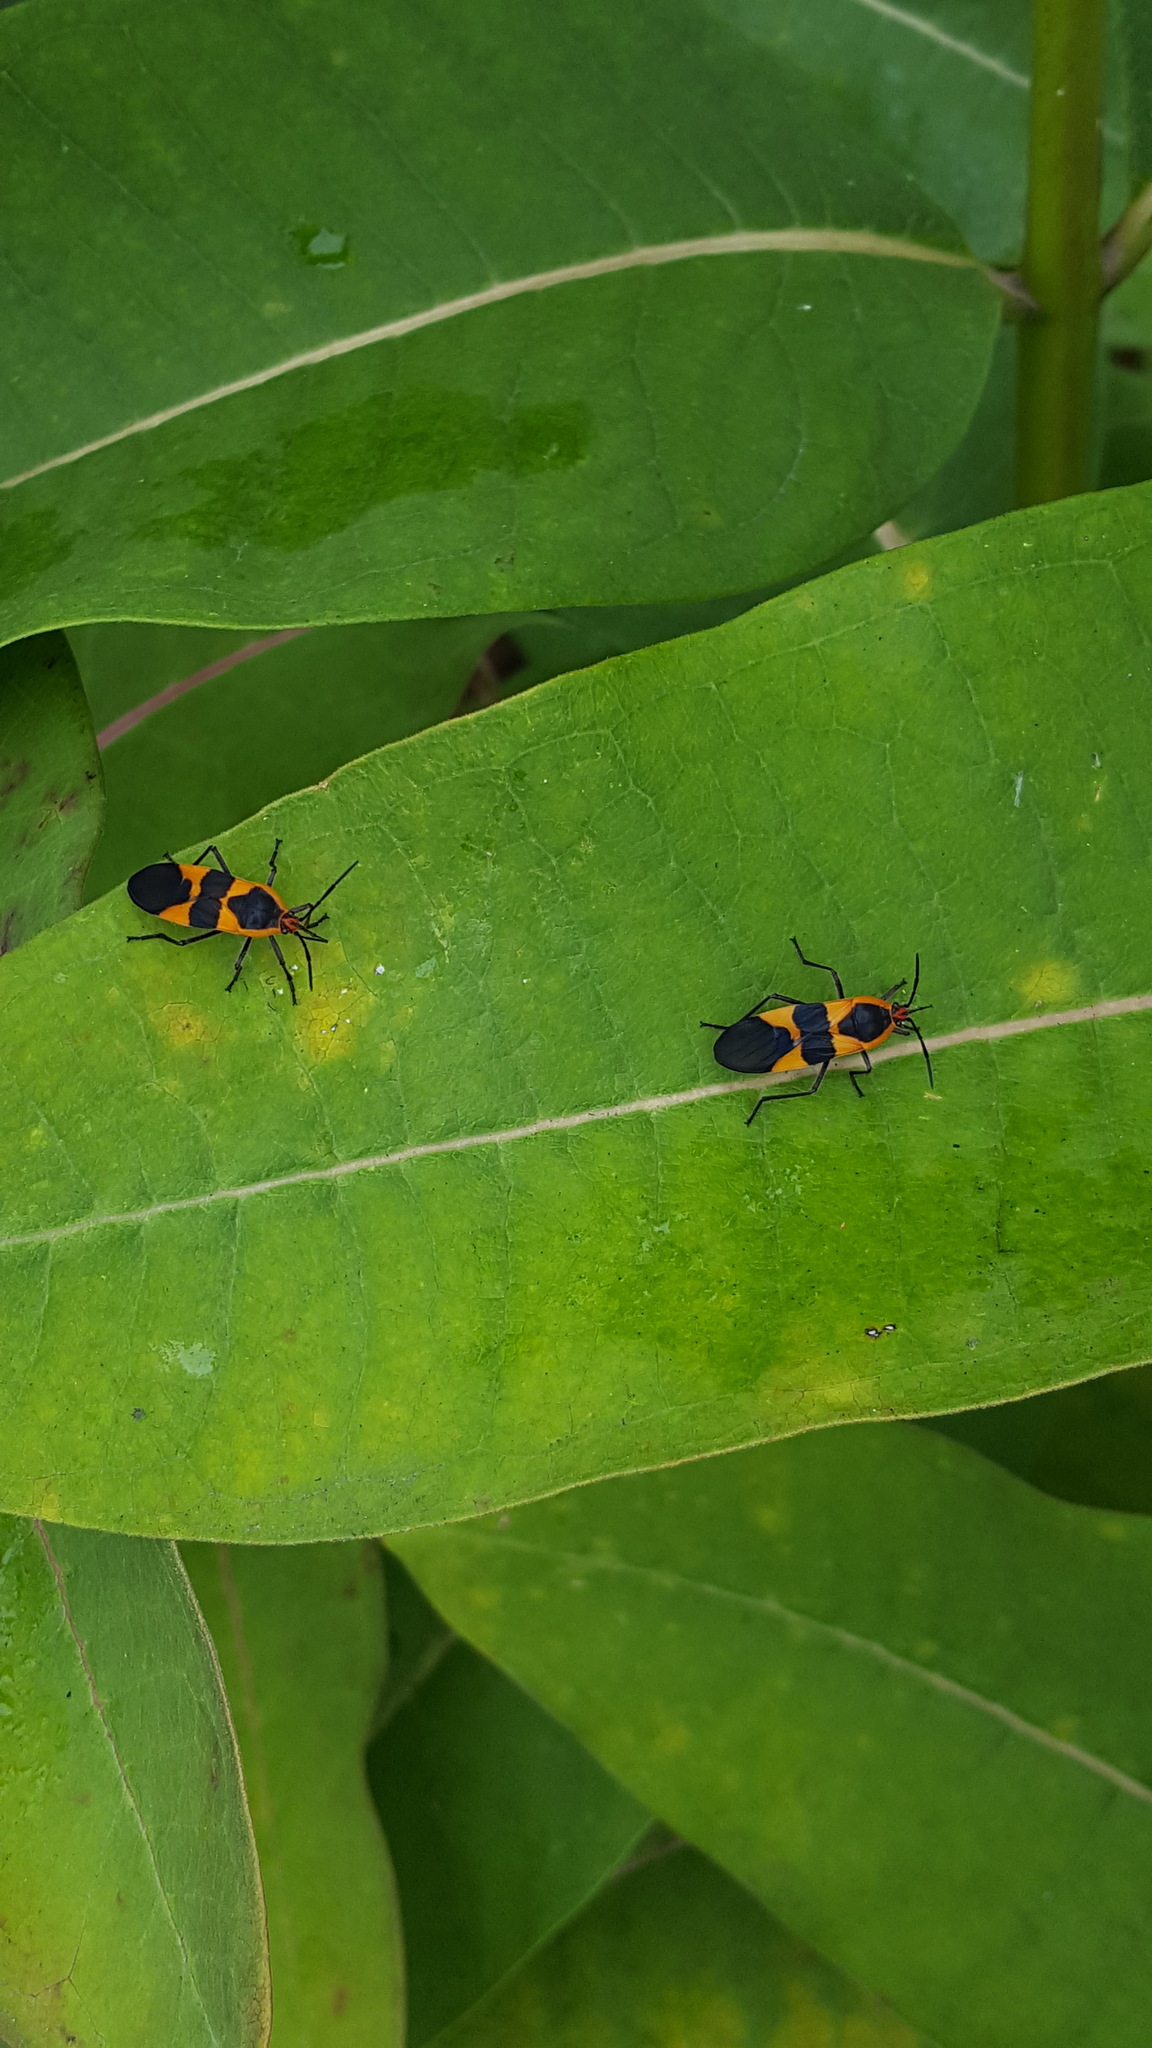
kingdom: Animalia
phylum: Arthropoda
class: Insecta
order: Hemiptera
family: Lygaeidae
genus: Oncopeltus
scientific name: Oncopeltus fasciatus
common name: Large milkweed bug
